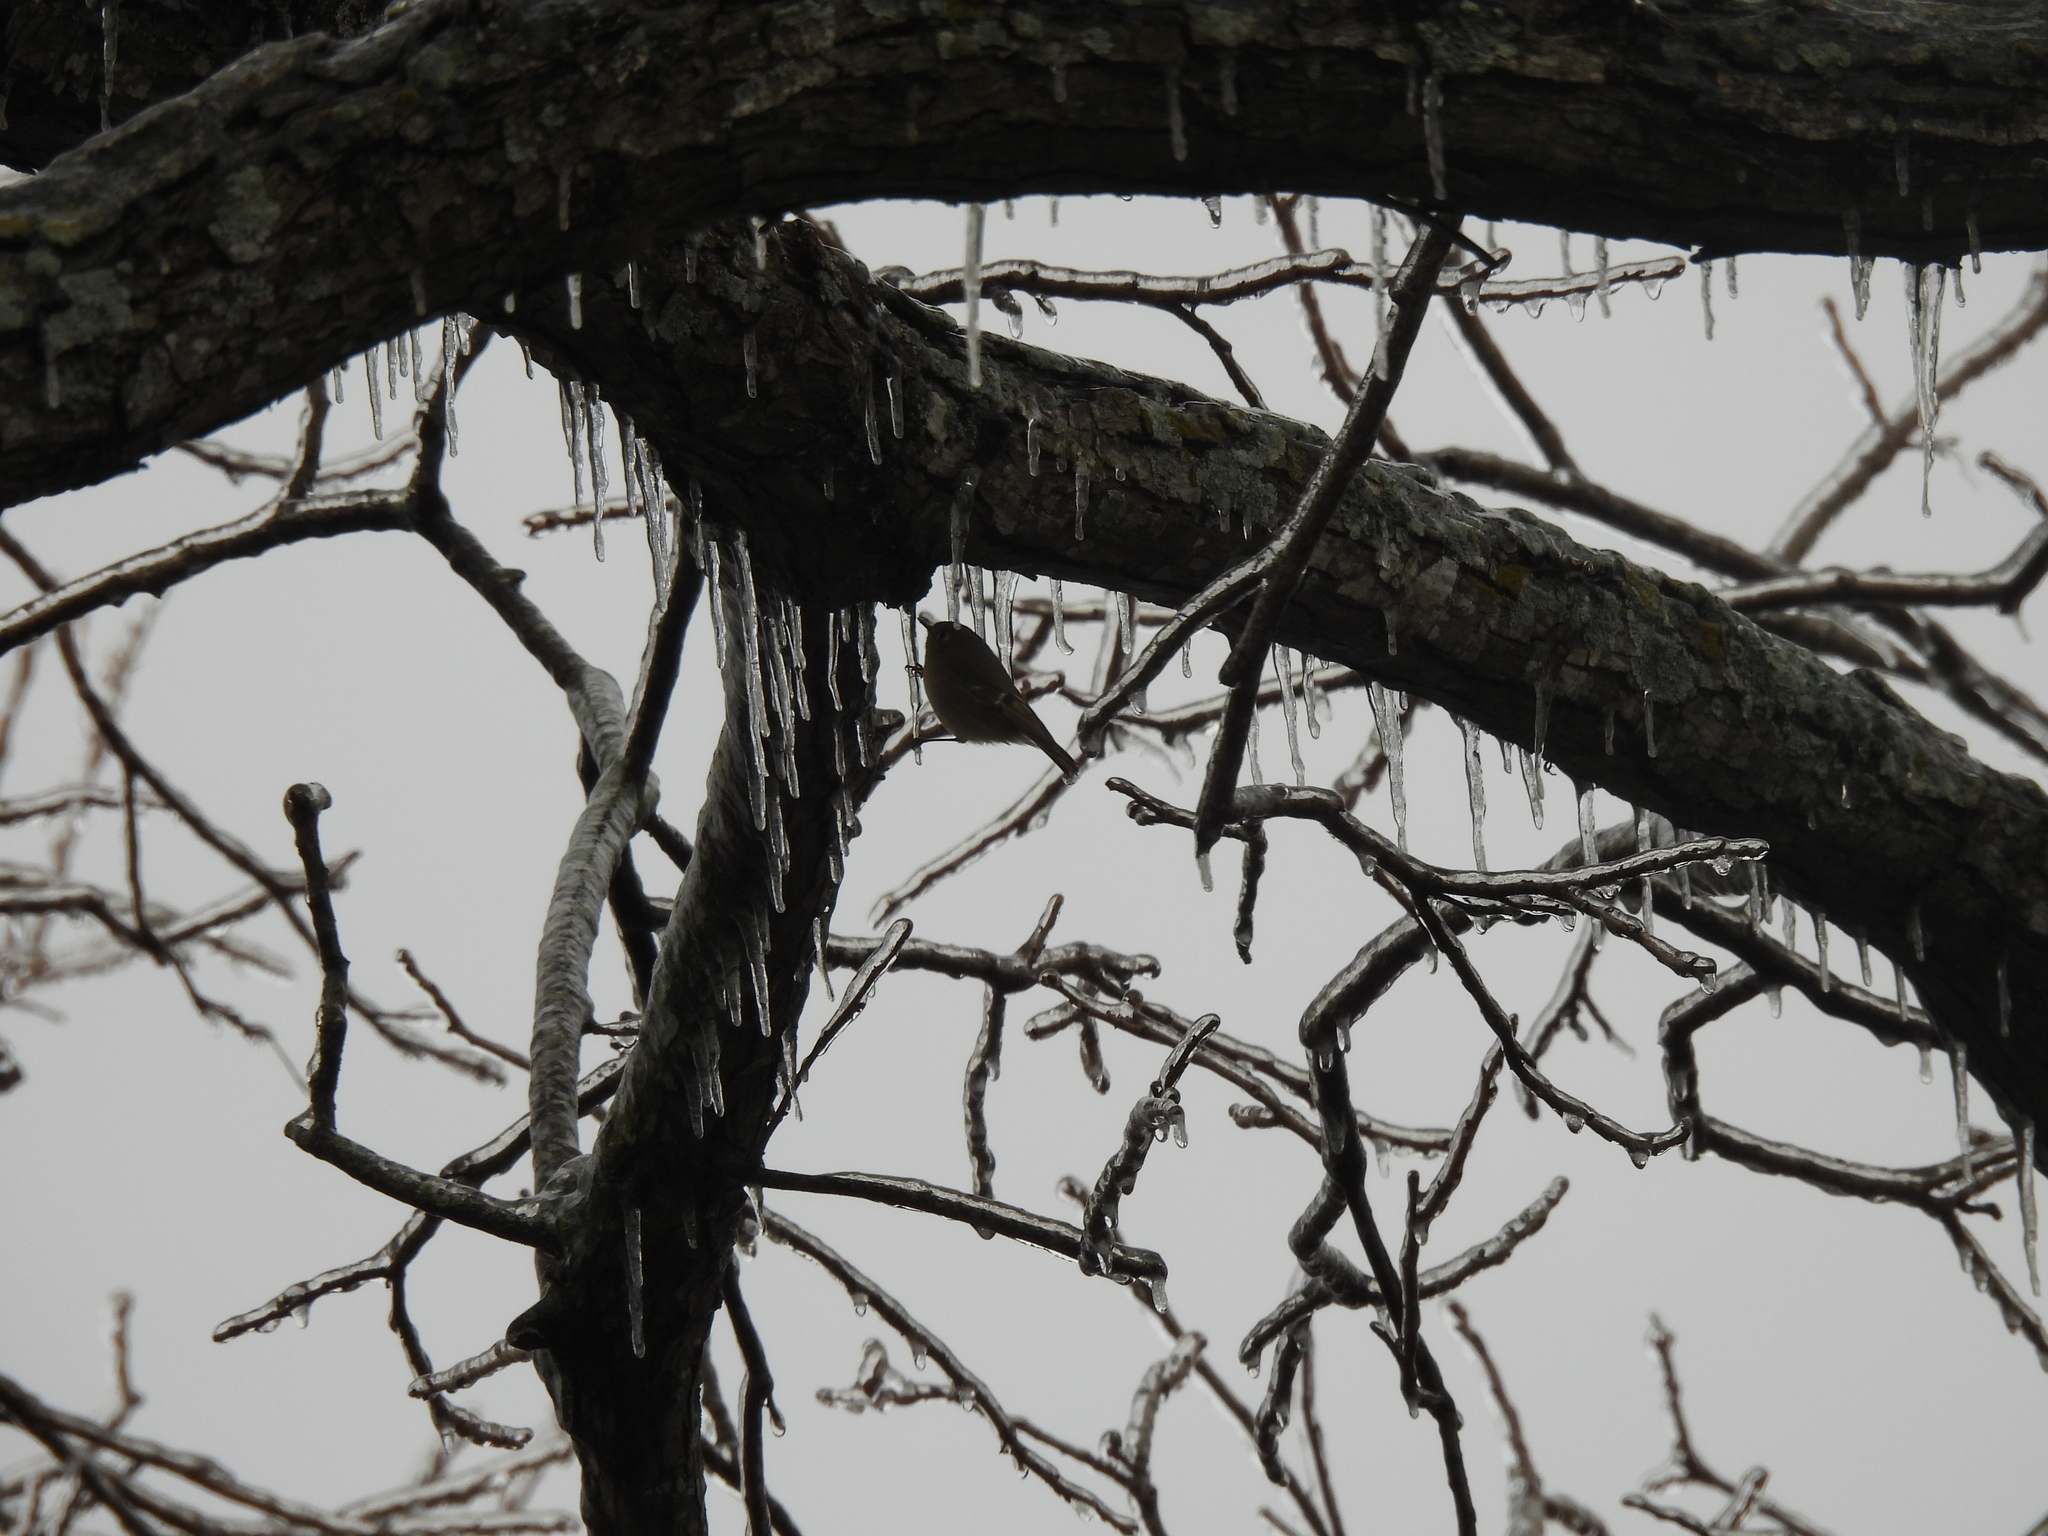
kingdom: Animalia
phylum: Chordata
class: Aves
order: Passeriformes
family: Regulidae
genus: Regulus
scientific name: Regulus calendula
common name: Ruby-crowned kinglet
